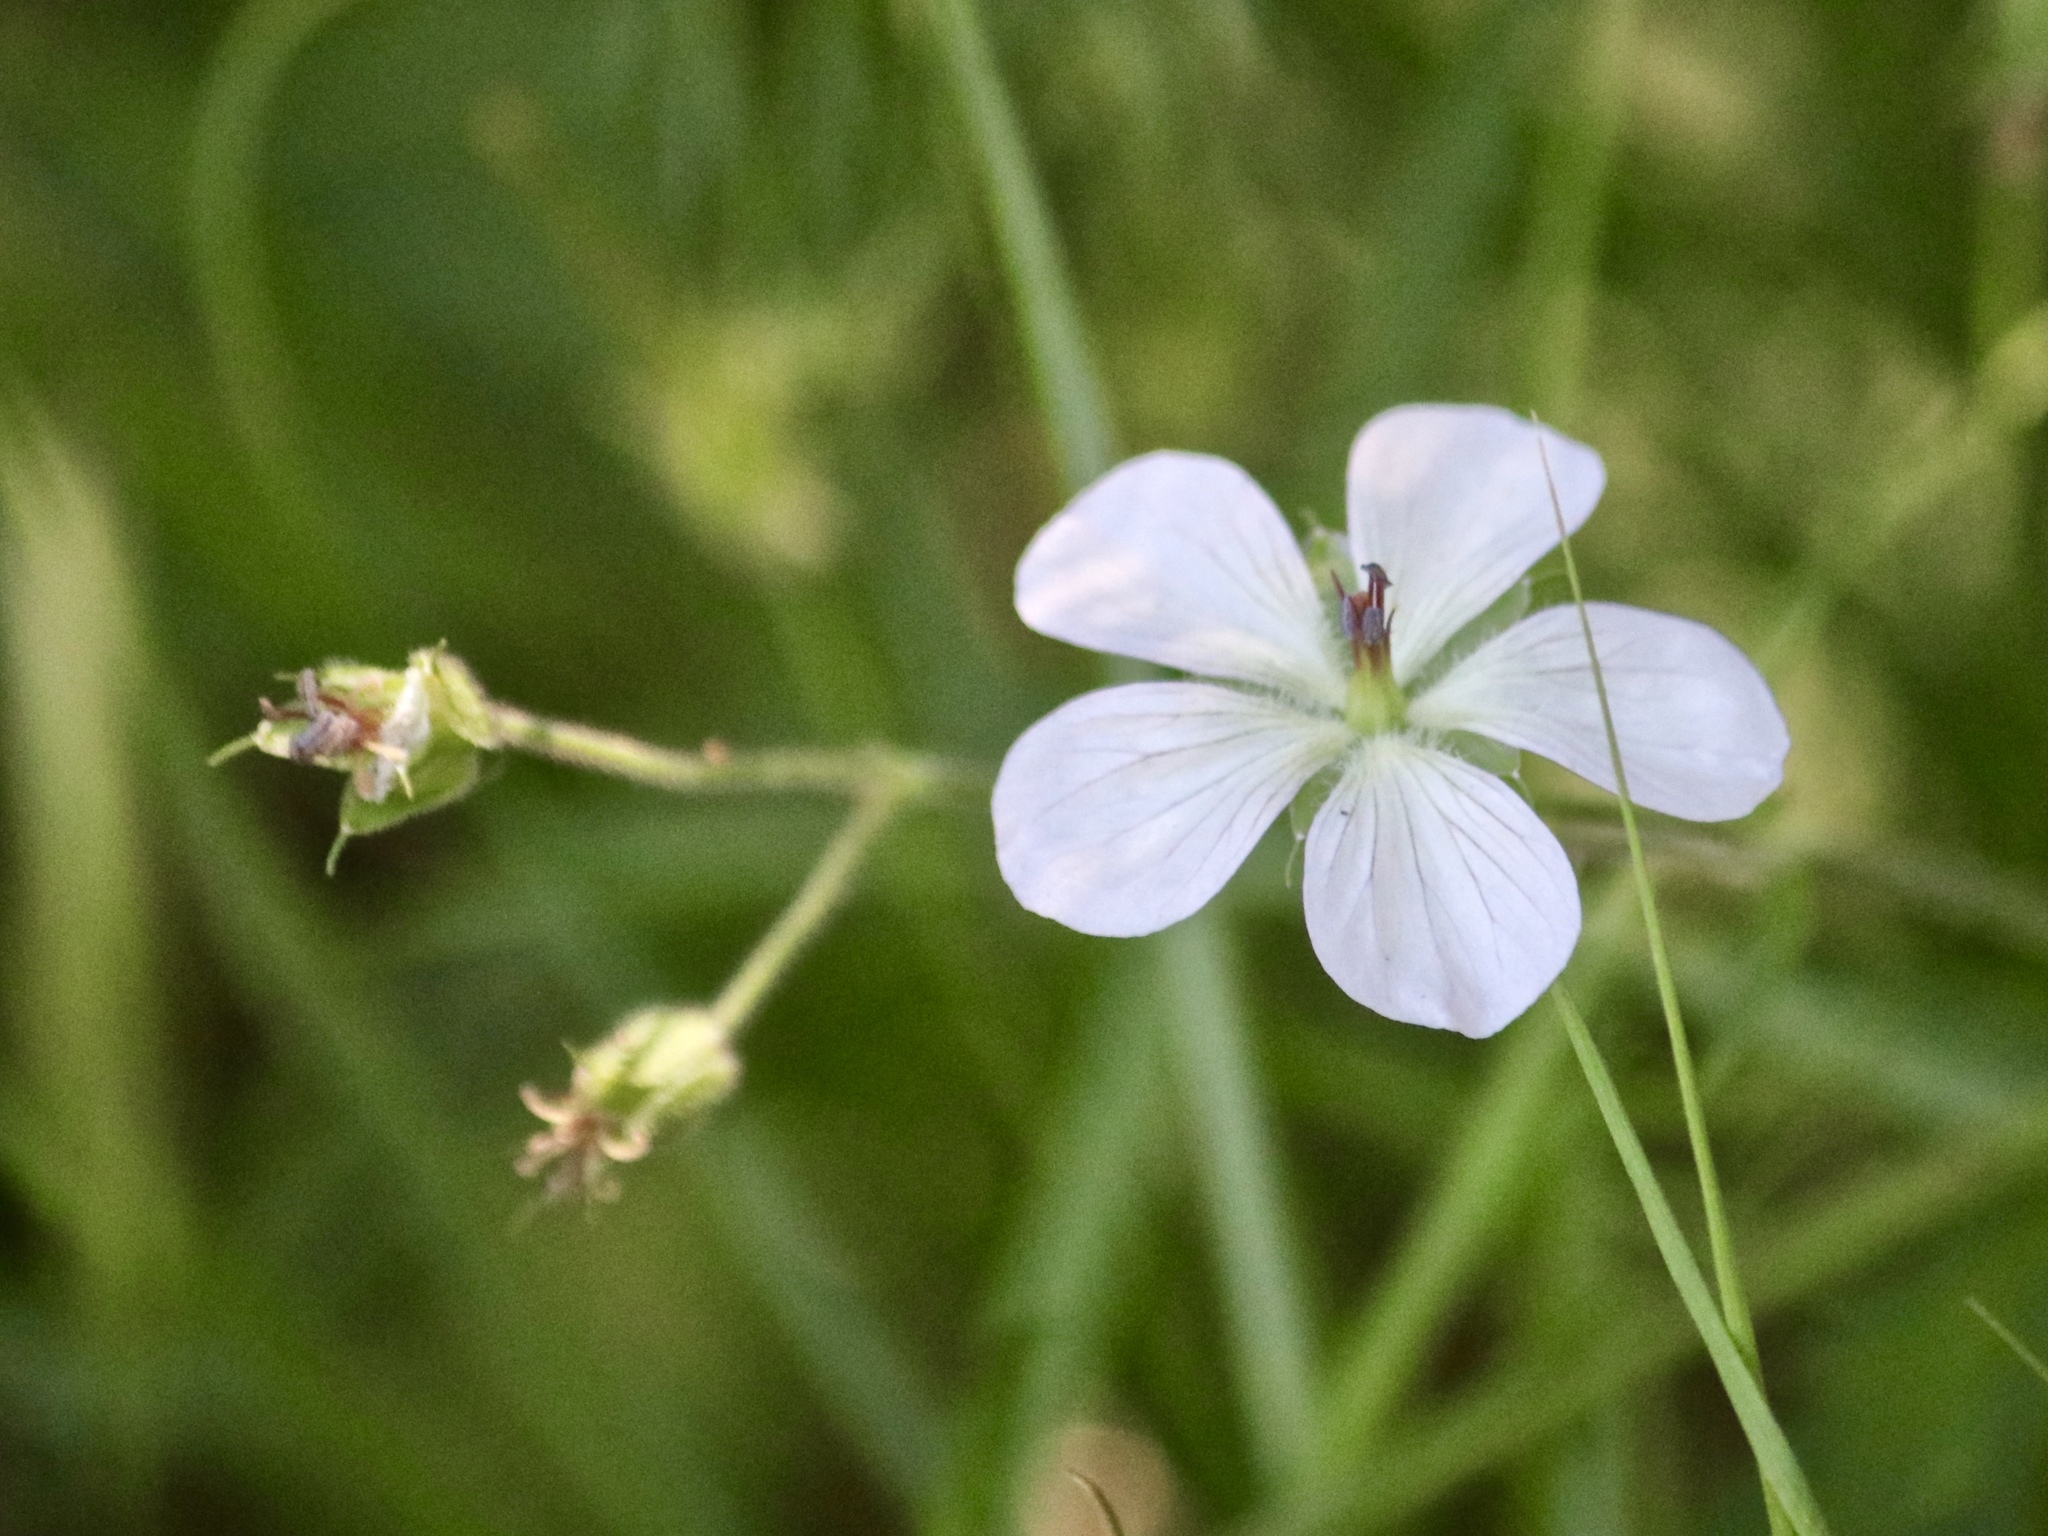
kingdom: Plantae
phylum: Tracheophyta
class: Magnoliopsida
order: Geraniales
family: Geraniaceae
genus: Geranium
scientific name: Geranium richardsonii
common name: Richardson's crane's-bill
